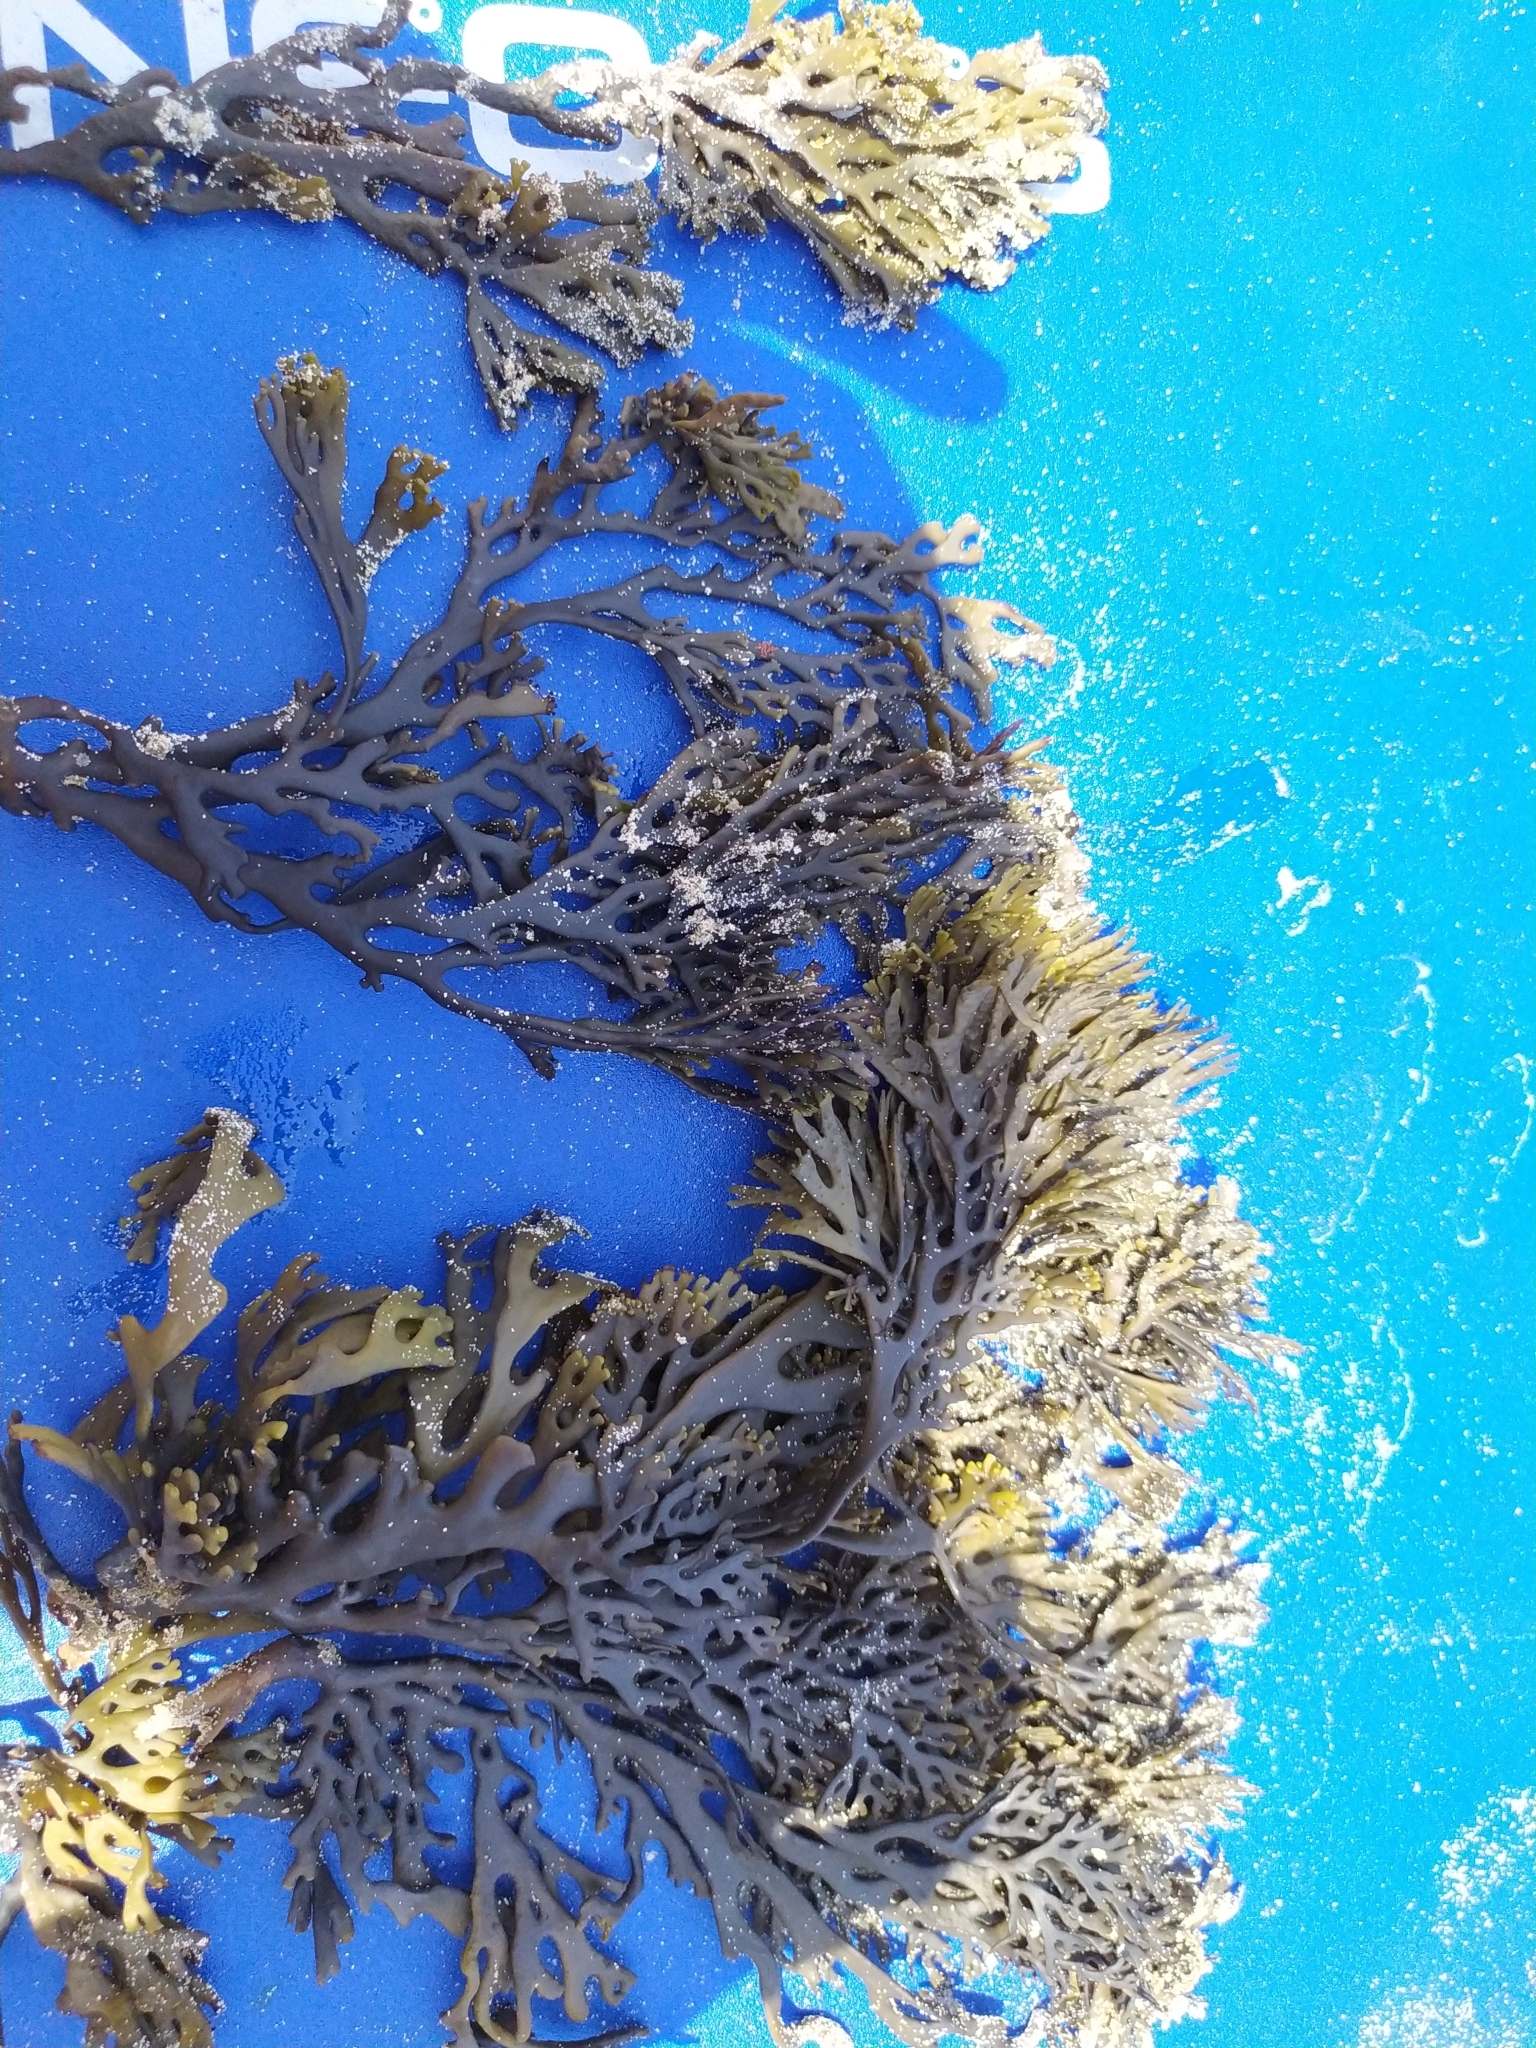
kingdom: Chromista
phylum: Ochrophyta
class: Phaeophyceae
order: Fucales
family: Xiphophoraceae
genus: Xiphophora
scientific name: Xiphophora chondrophylla
